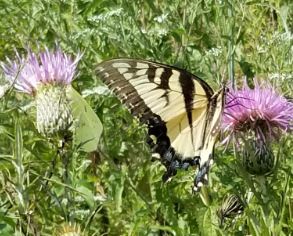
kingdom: Animalia
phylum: Arthropoda
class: Insecta
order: Lepidoptera
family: Papilionidae
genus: Papilio
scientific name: Papilio glaucus
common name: Tiger swallowtail
